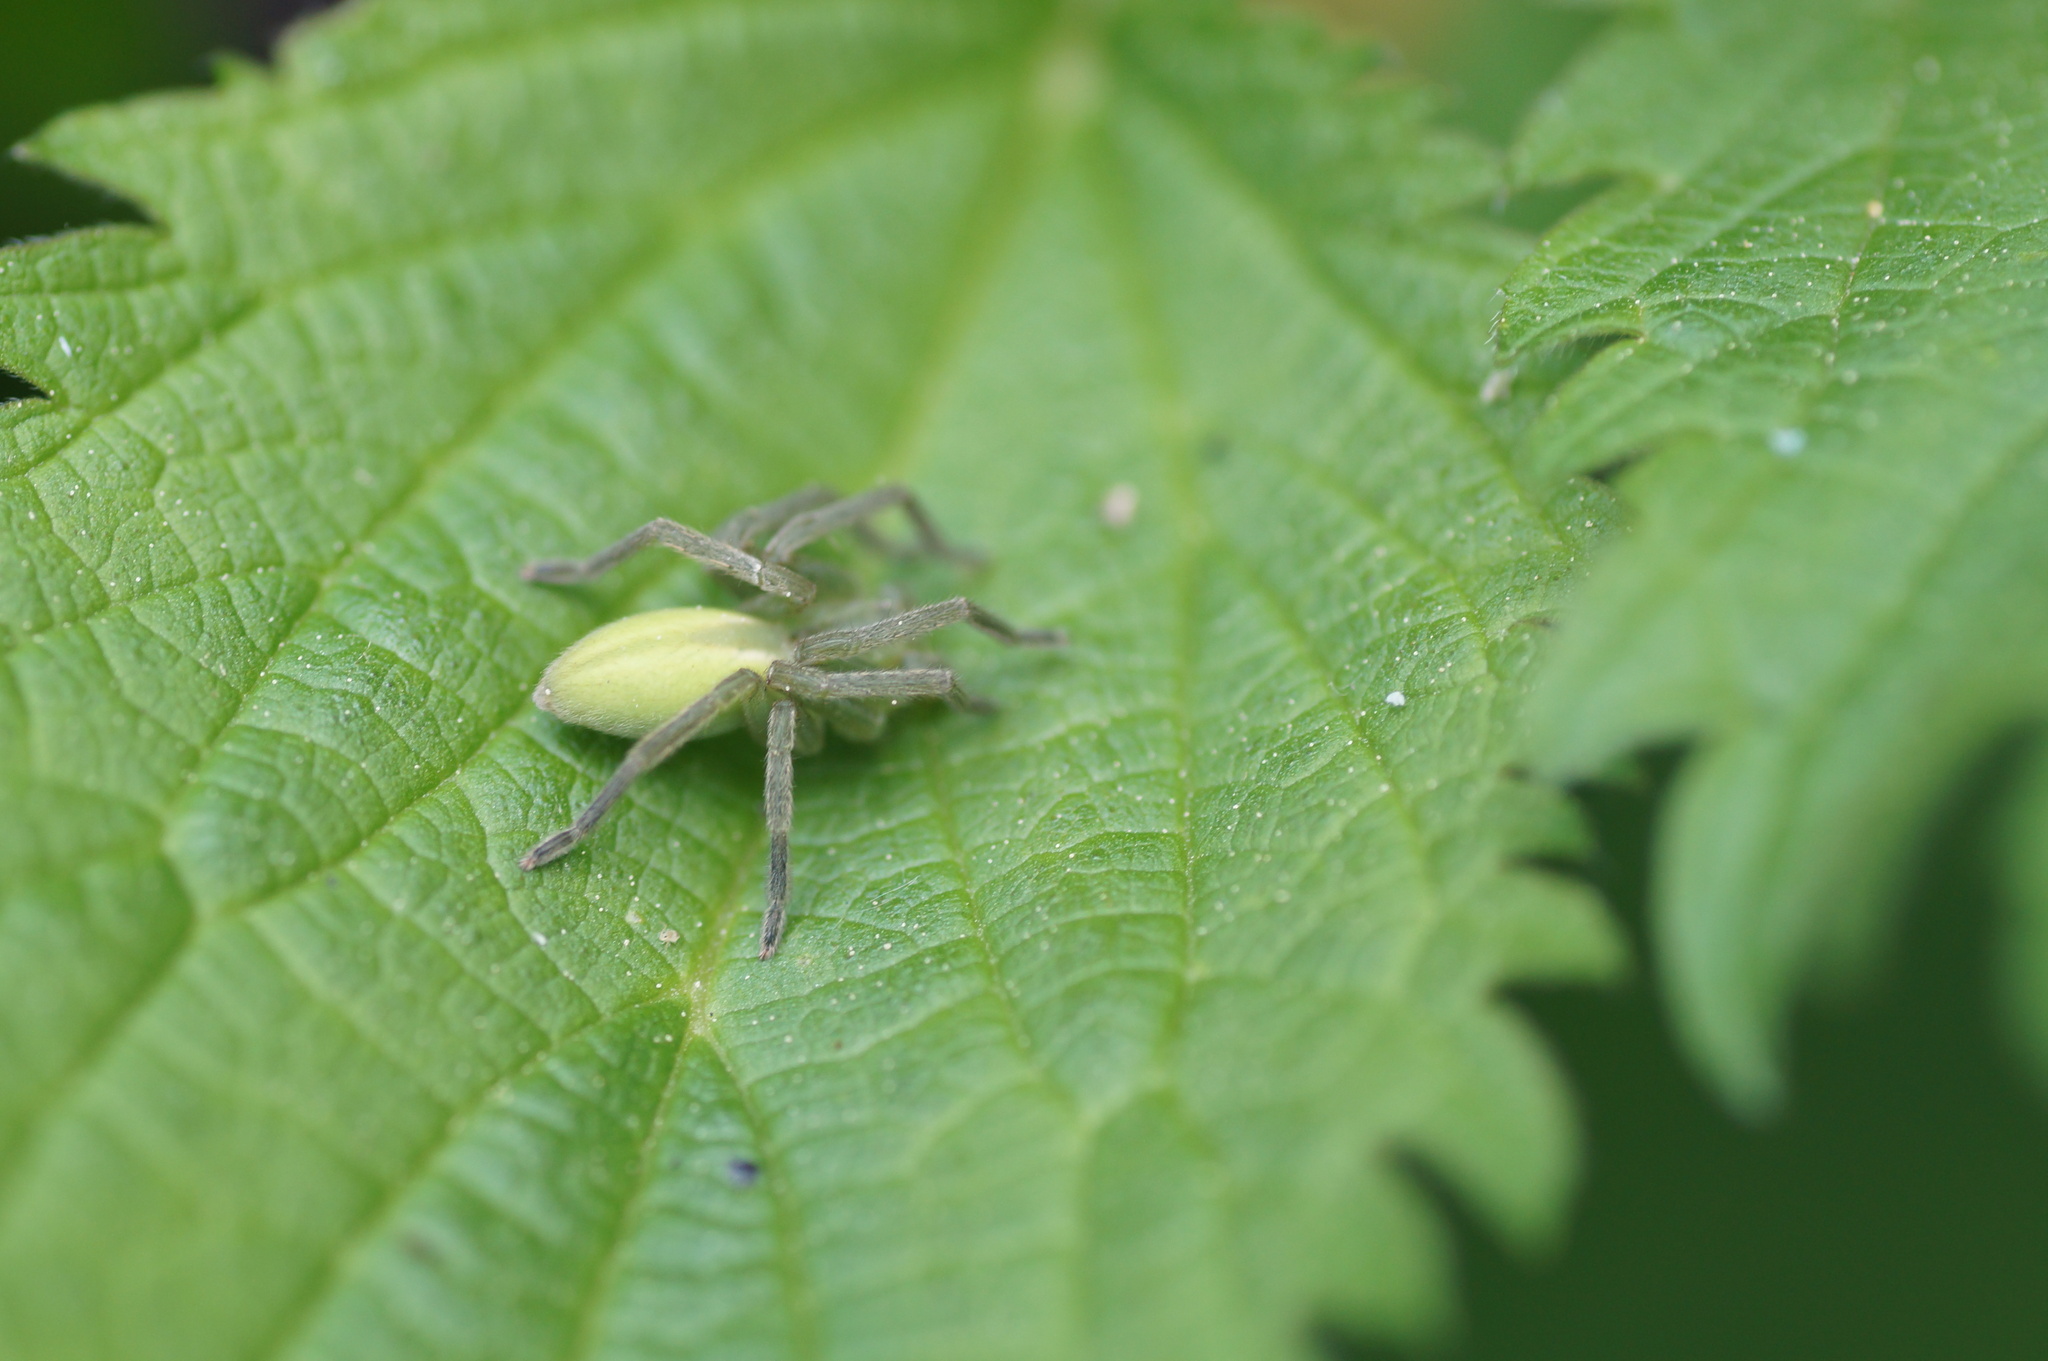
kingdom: Animalia
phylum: Arthropoda
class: Arachnida
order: Araneae
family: Sparassidae
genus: Micrommata
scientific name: Micrommata virescens
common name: Green spider
